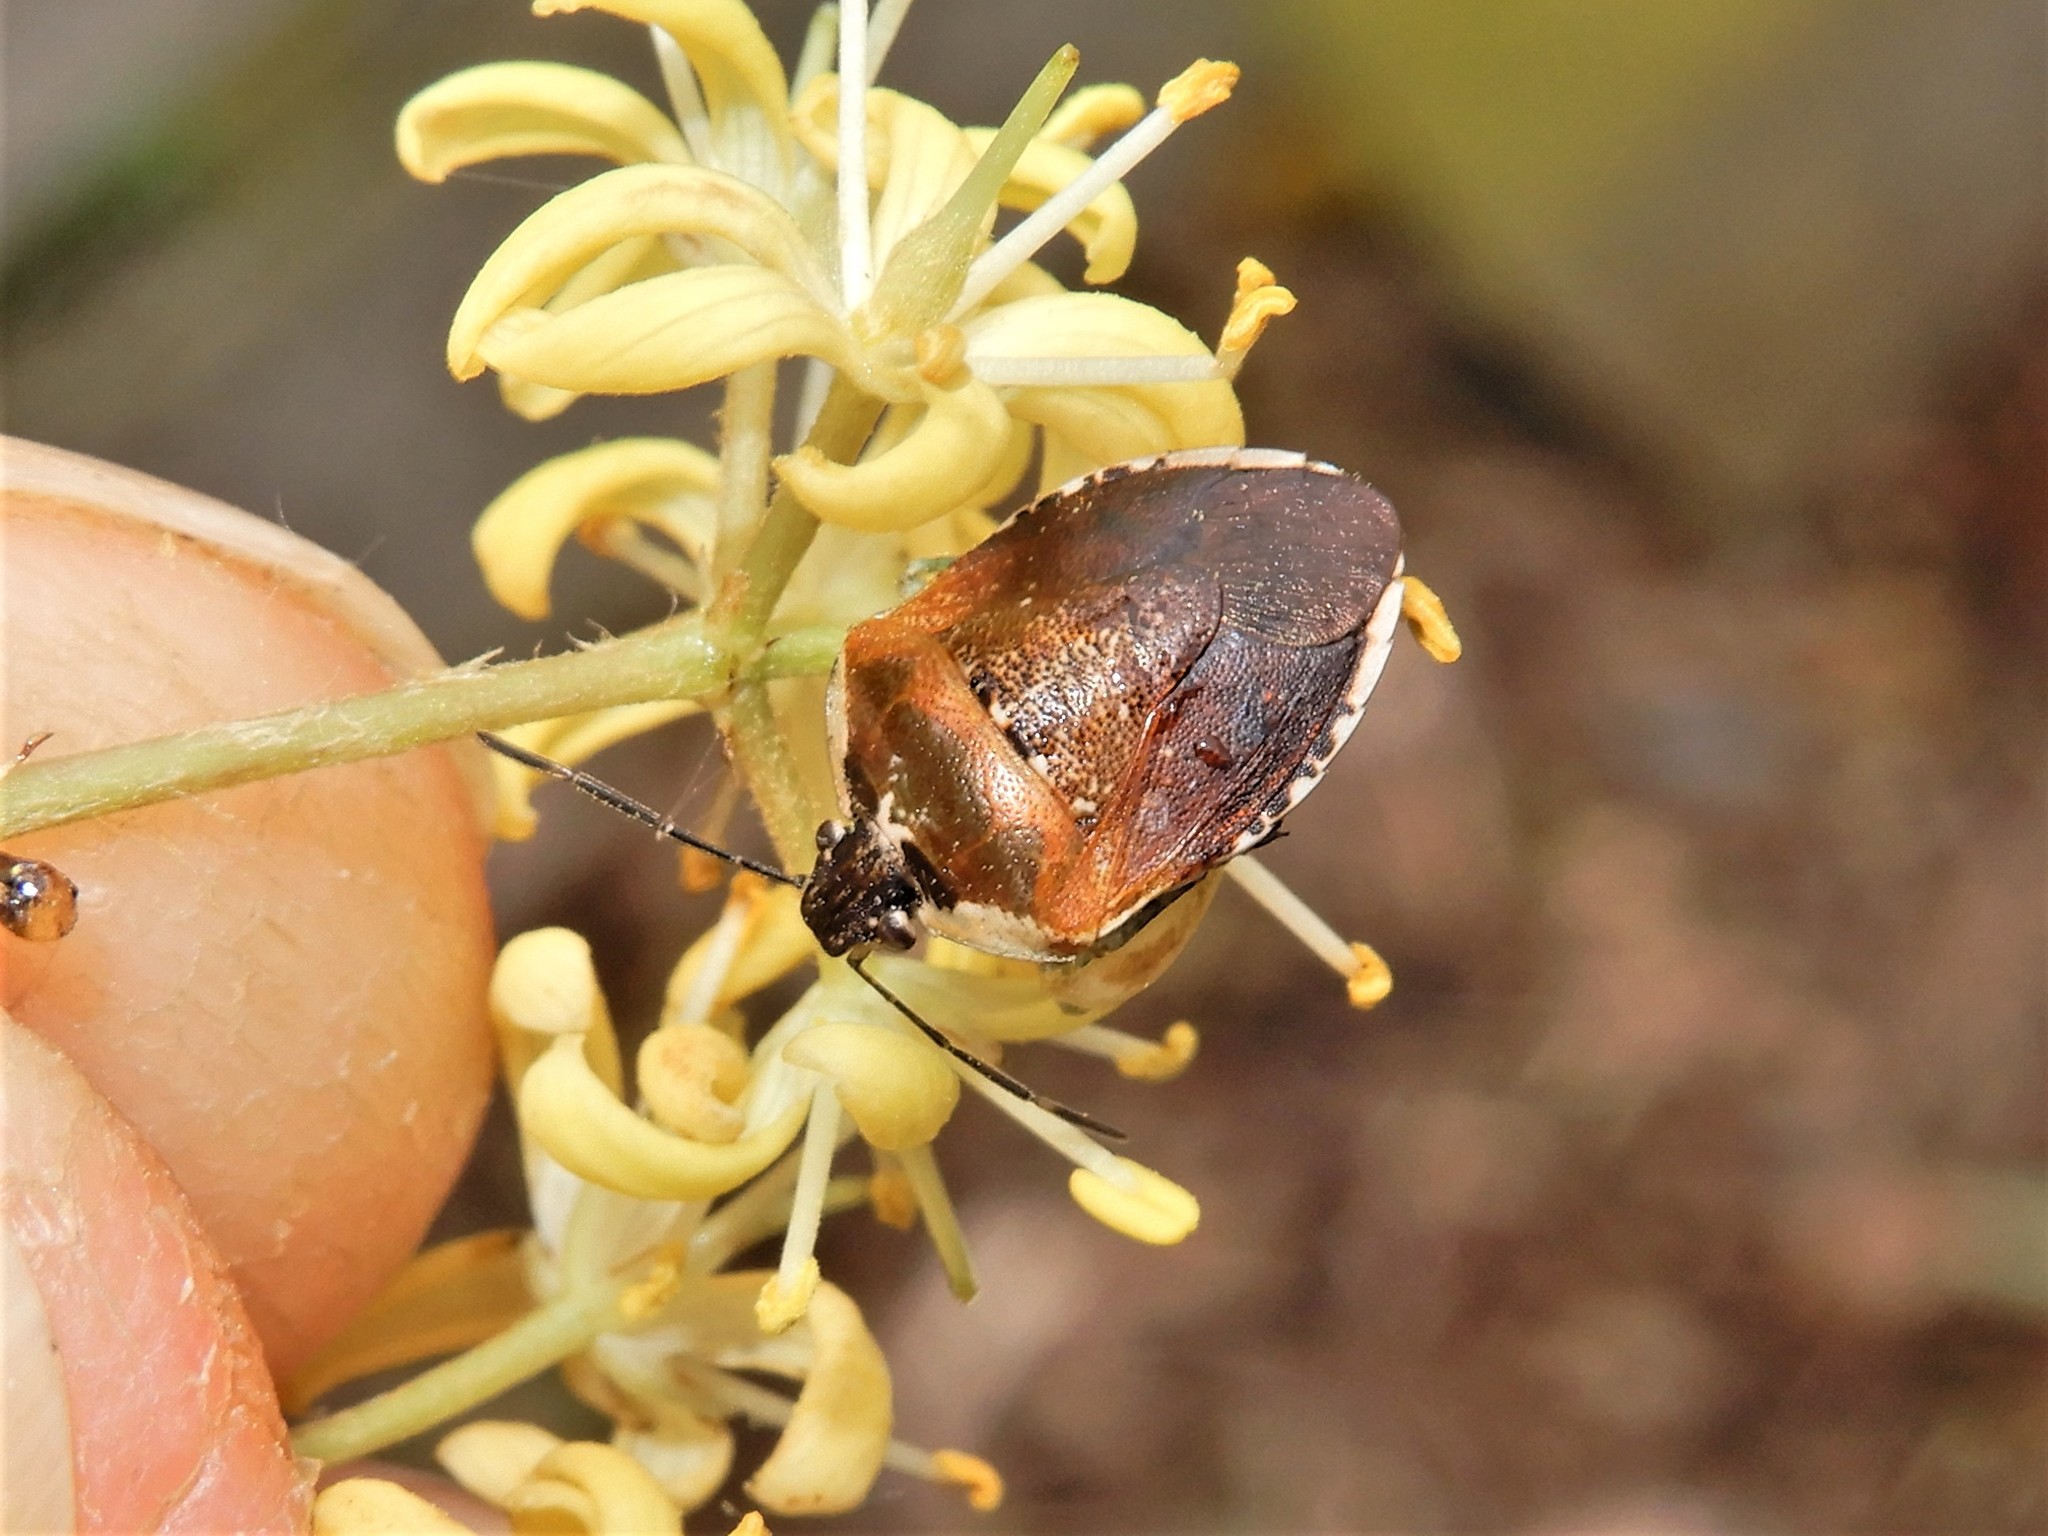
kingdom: Animalia
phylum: Arthropoda
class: Insecta
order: Hemiptera
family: Pentatomidae
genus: Monteithiella
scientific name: Monteithiella
